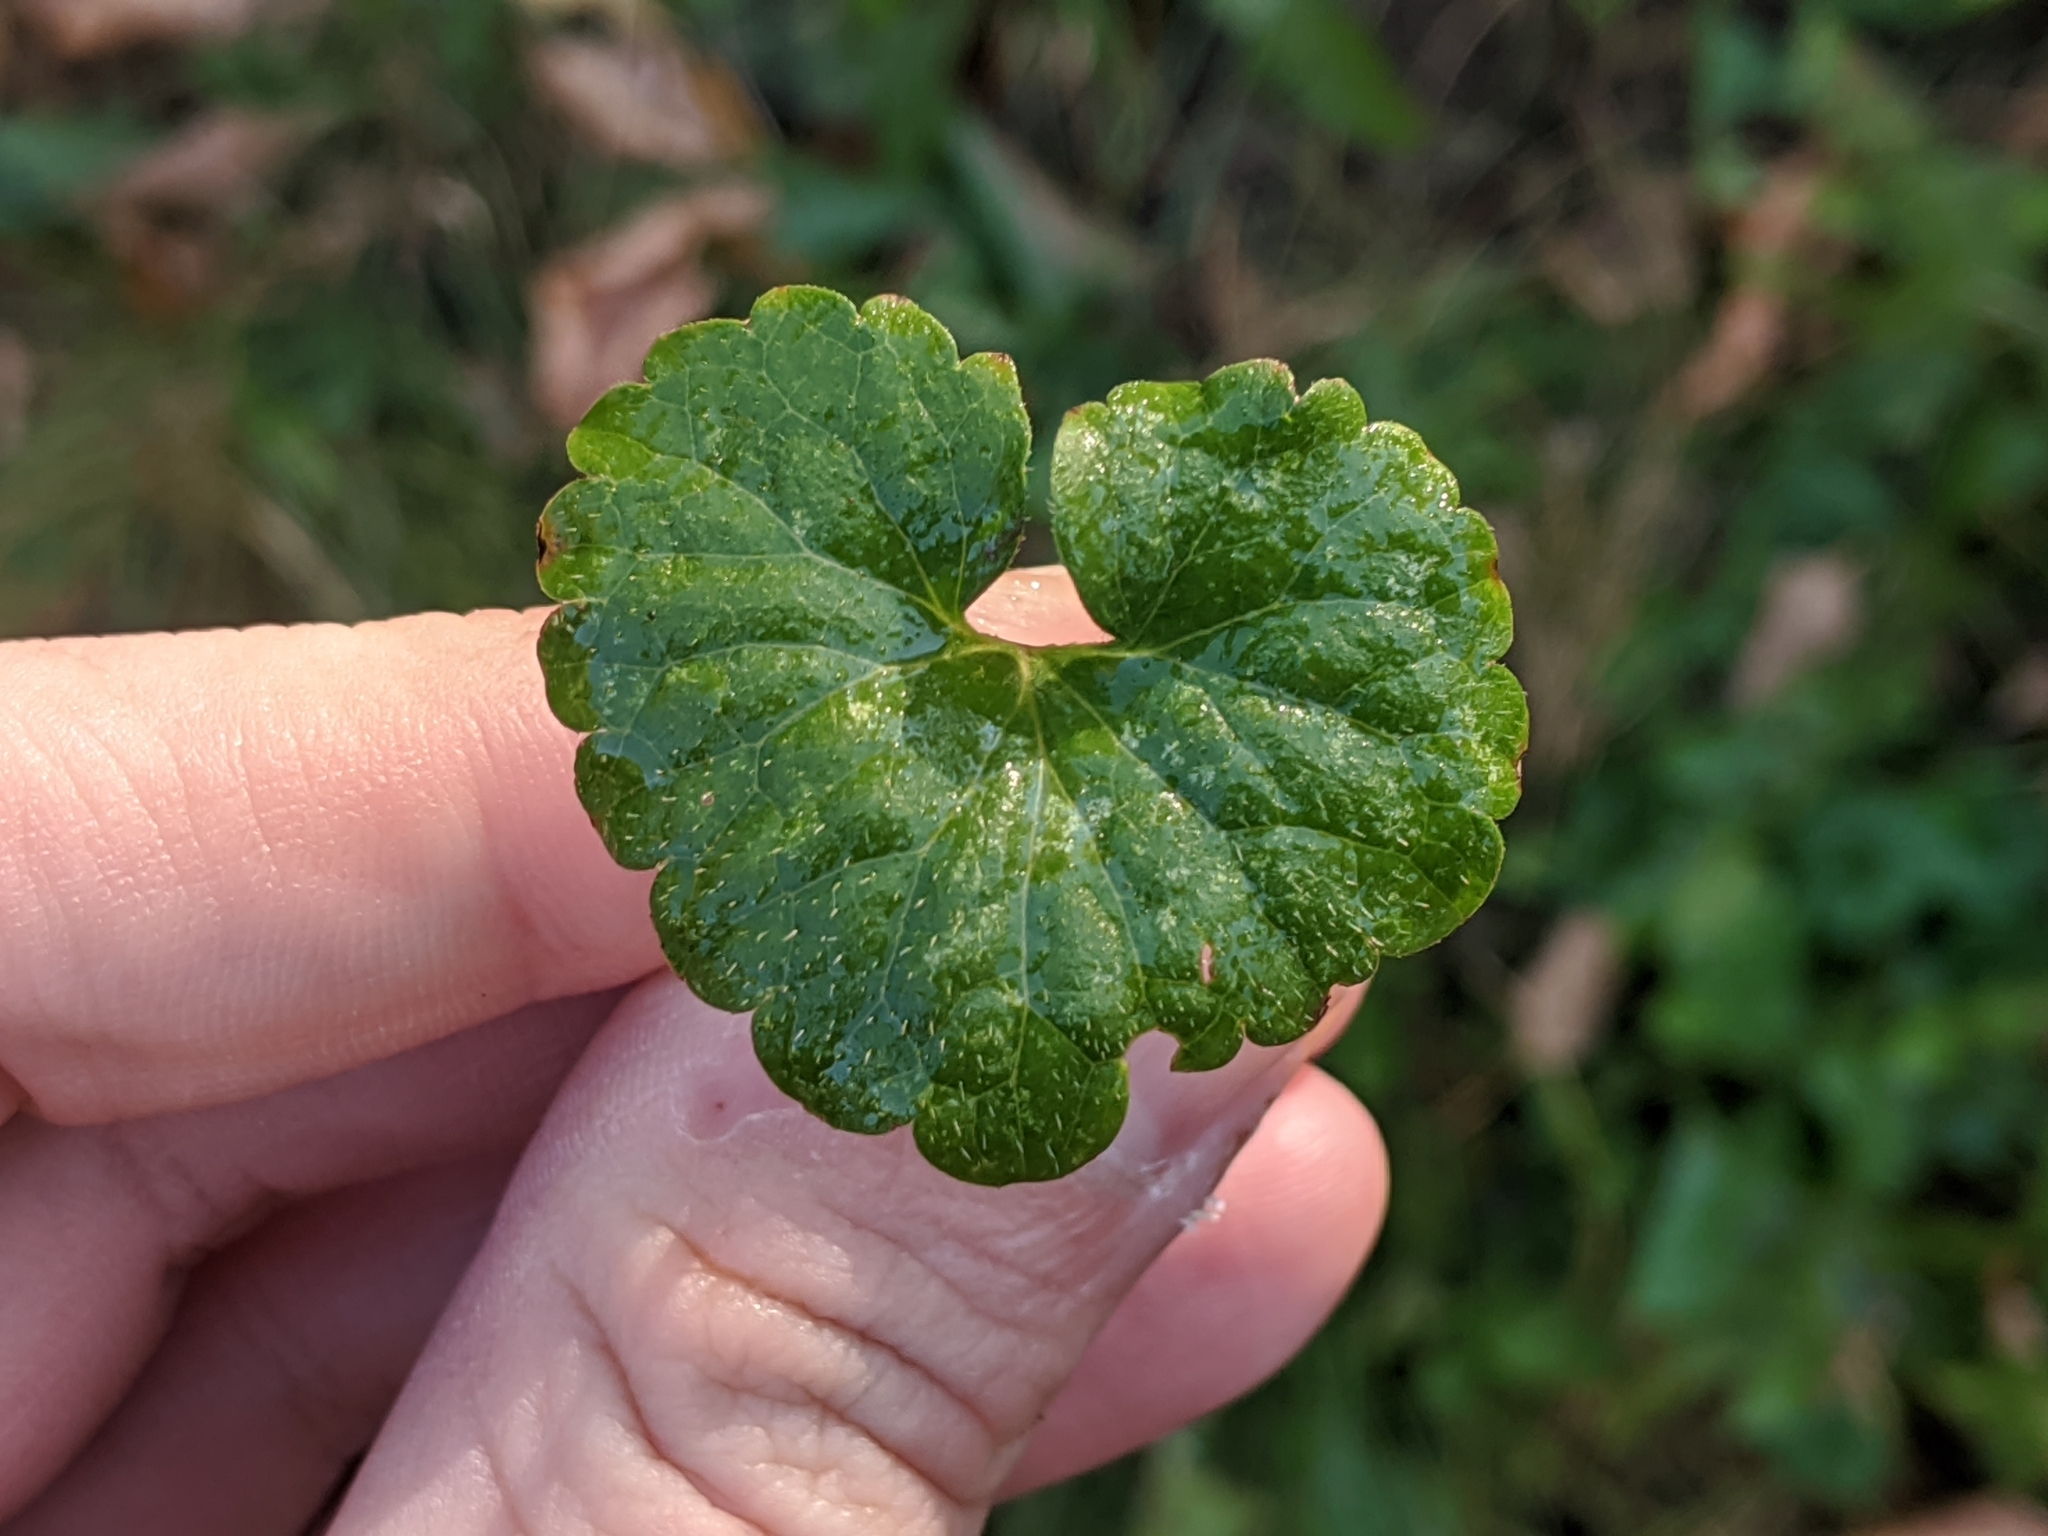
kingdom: Plantae
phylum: Tracheophyta
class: Magnoliopsida
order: Lamiales
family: Lamiaceae
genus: Glechoma
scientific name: Glechoma hederacea
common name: Ground ivy
